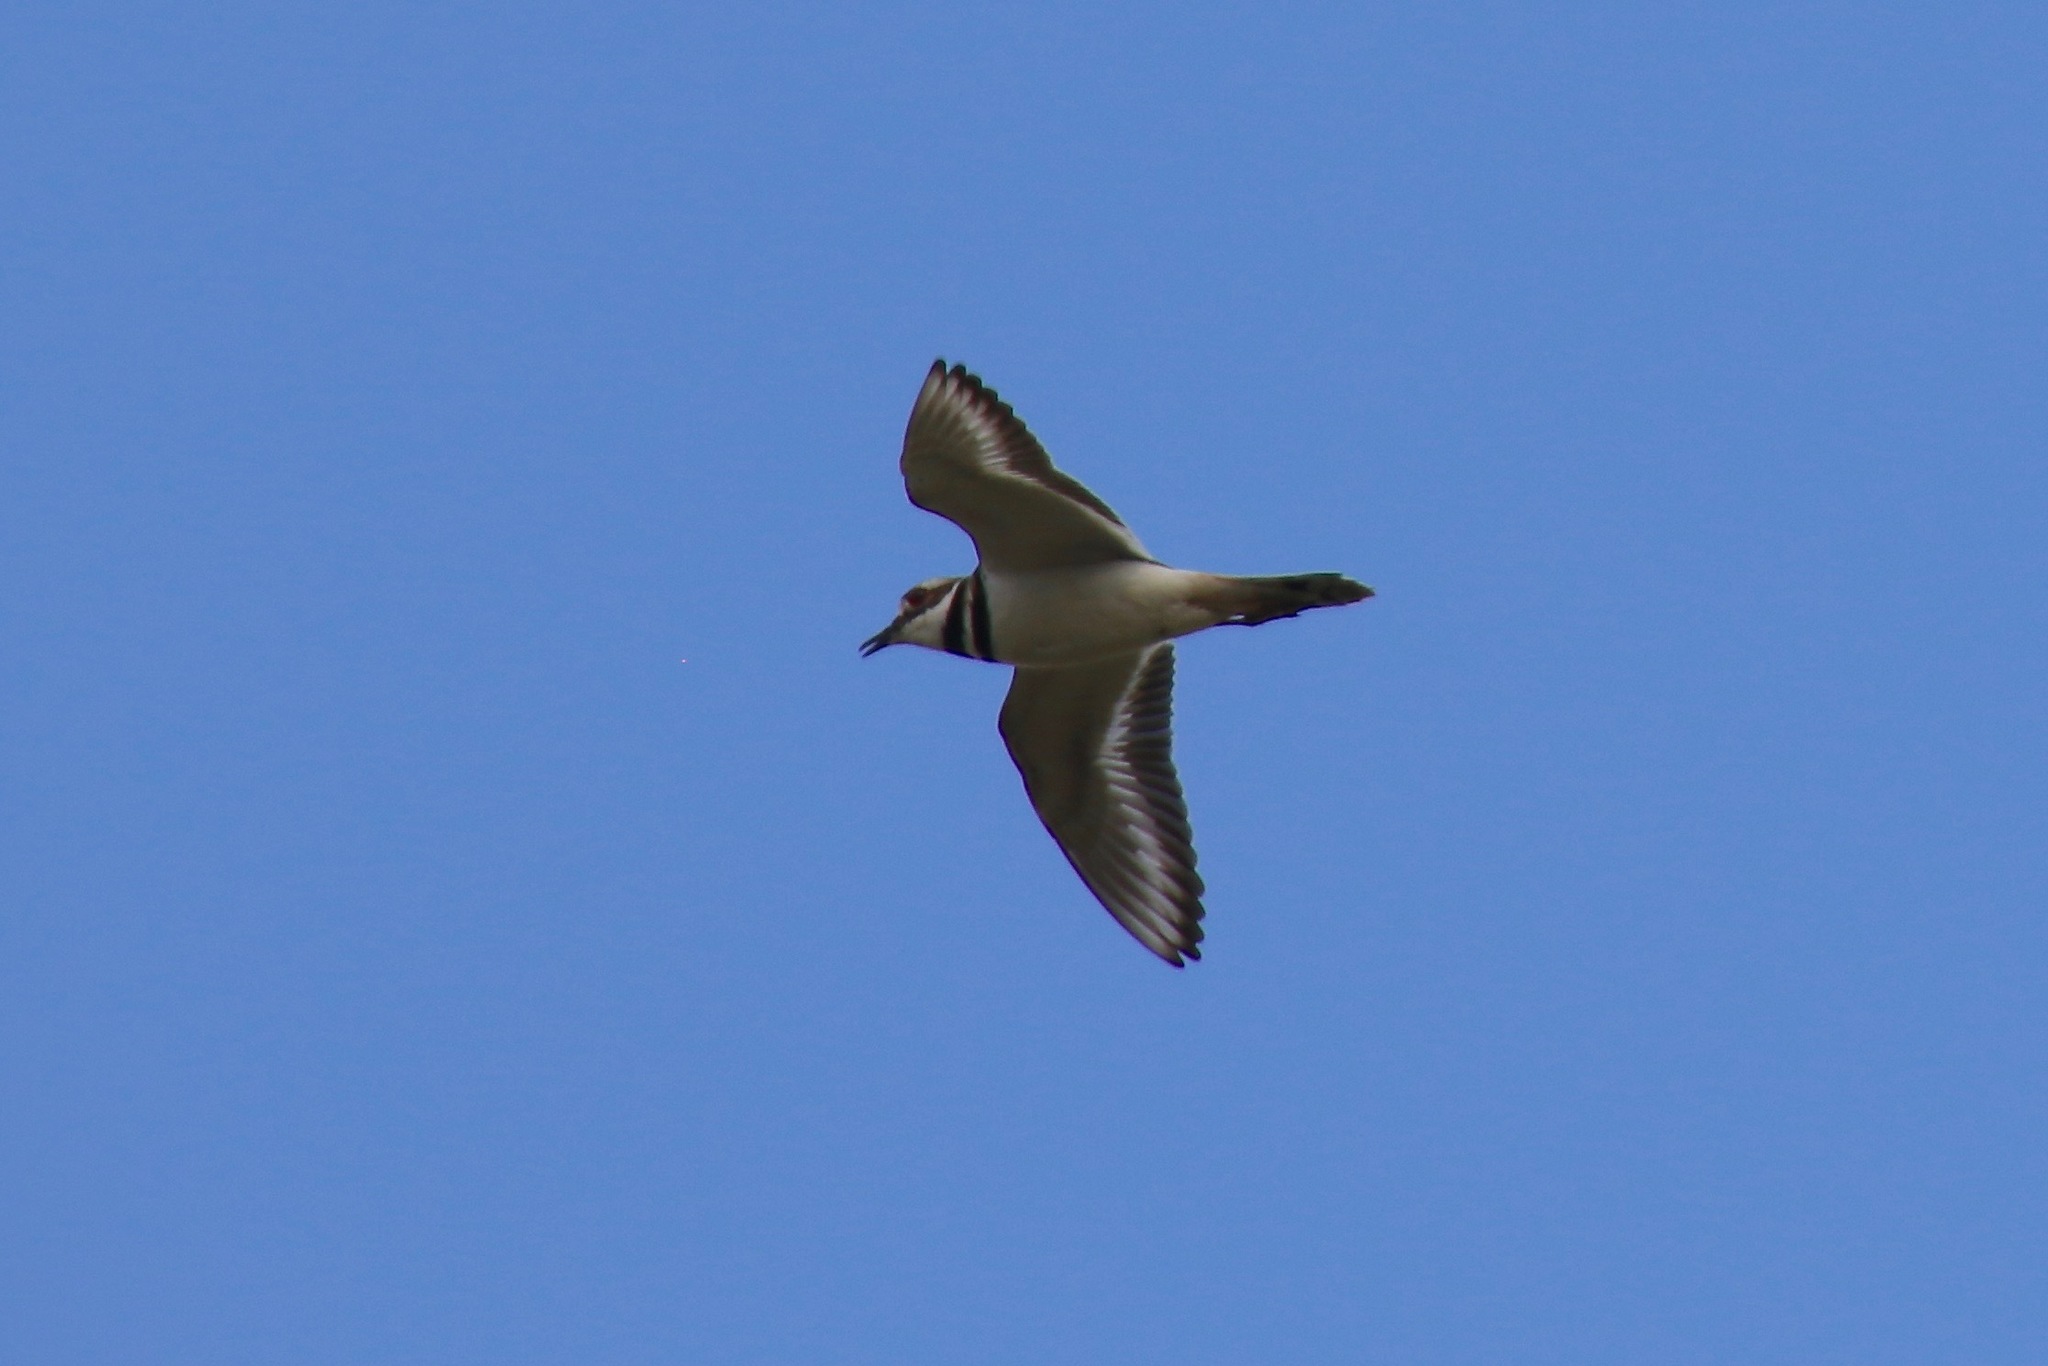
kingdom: Animalia
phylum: Chordata
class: Aves
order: Charadriiformes
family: Charadriidae
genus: Charadrius
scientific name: Charadrius vociferus
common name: Killdeer
